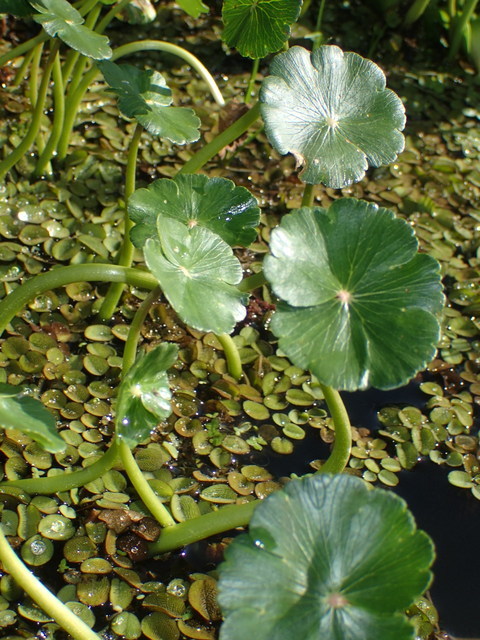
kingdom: Plantae
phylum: Tracheophyta
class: Magnoliopsida
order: Apiales
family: Araliaceae
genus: Hydrocotyle
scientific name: Hydrocotyle ranunculoides
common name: Floating pennywort
